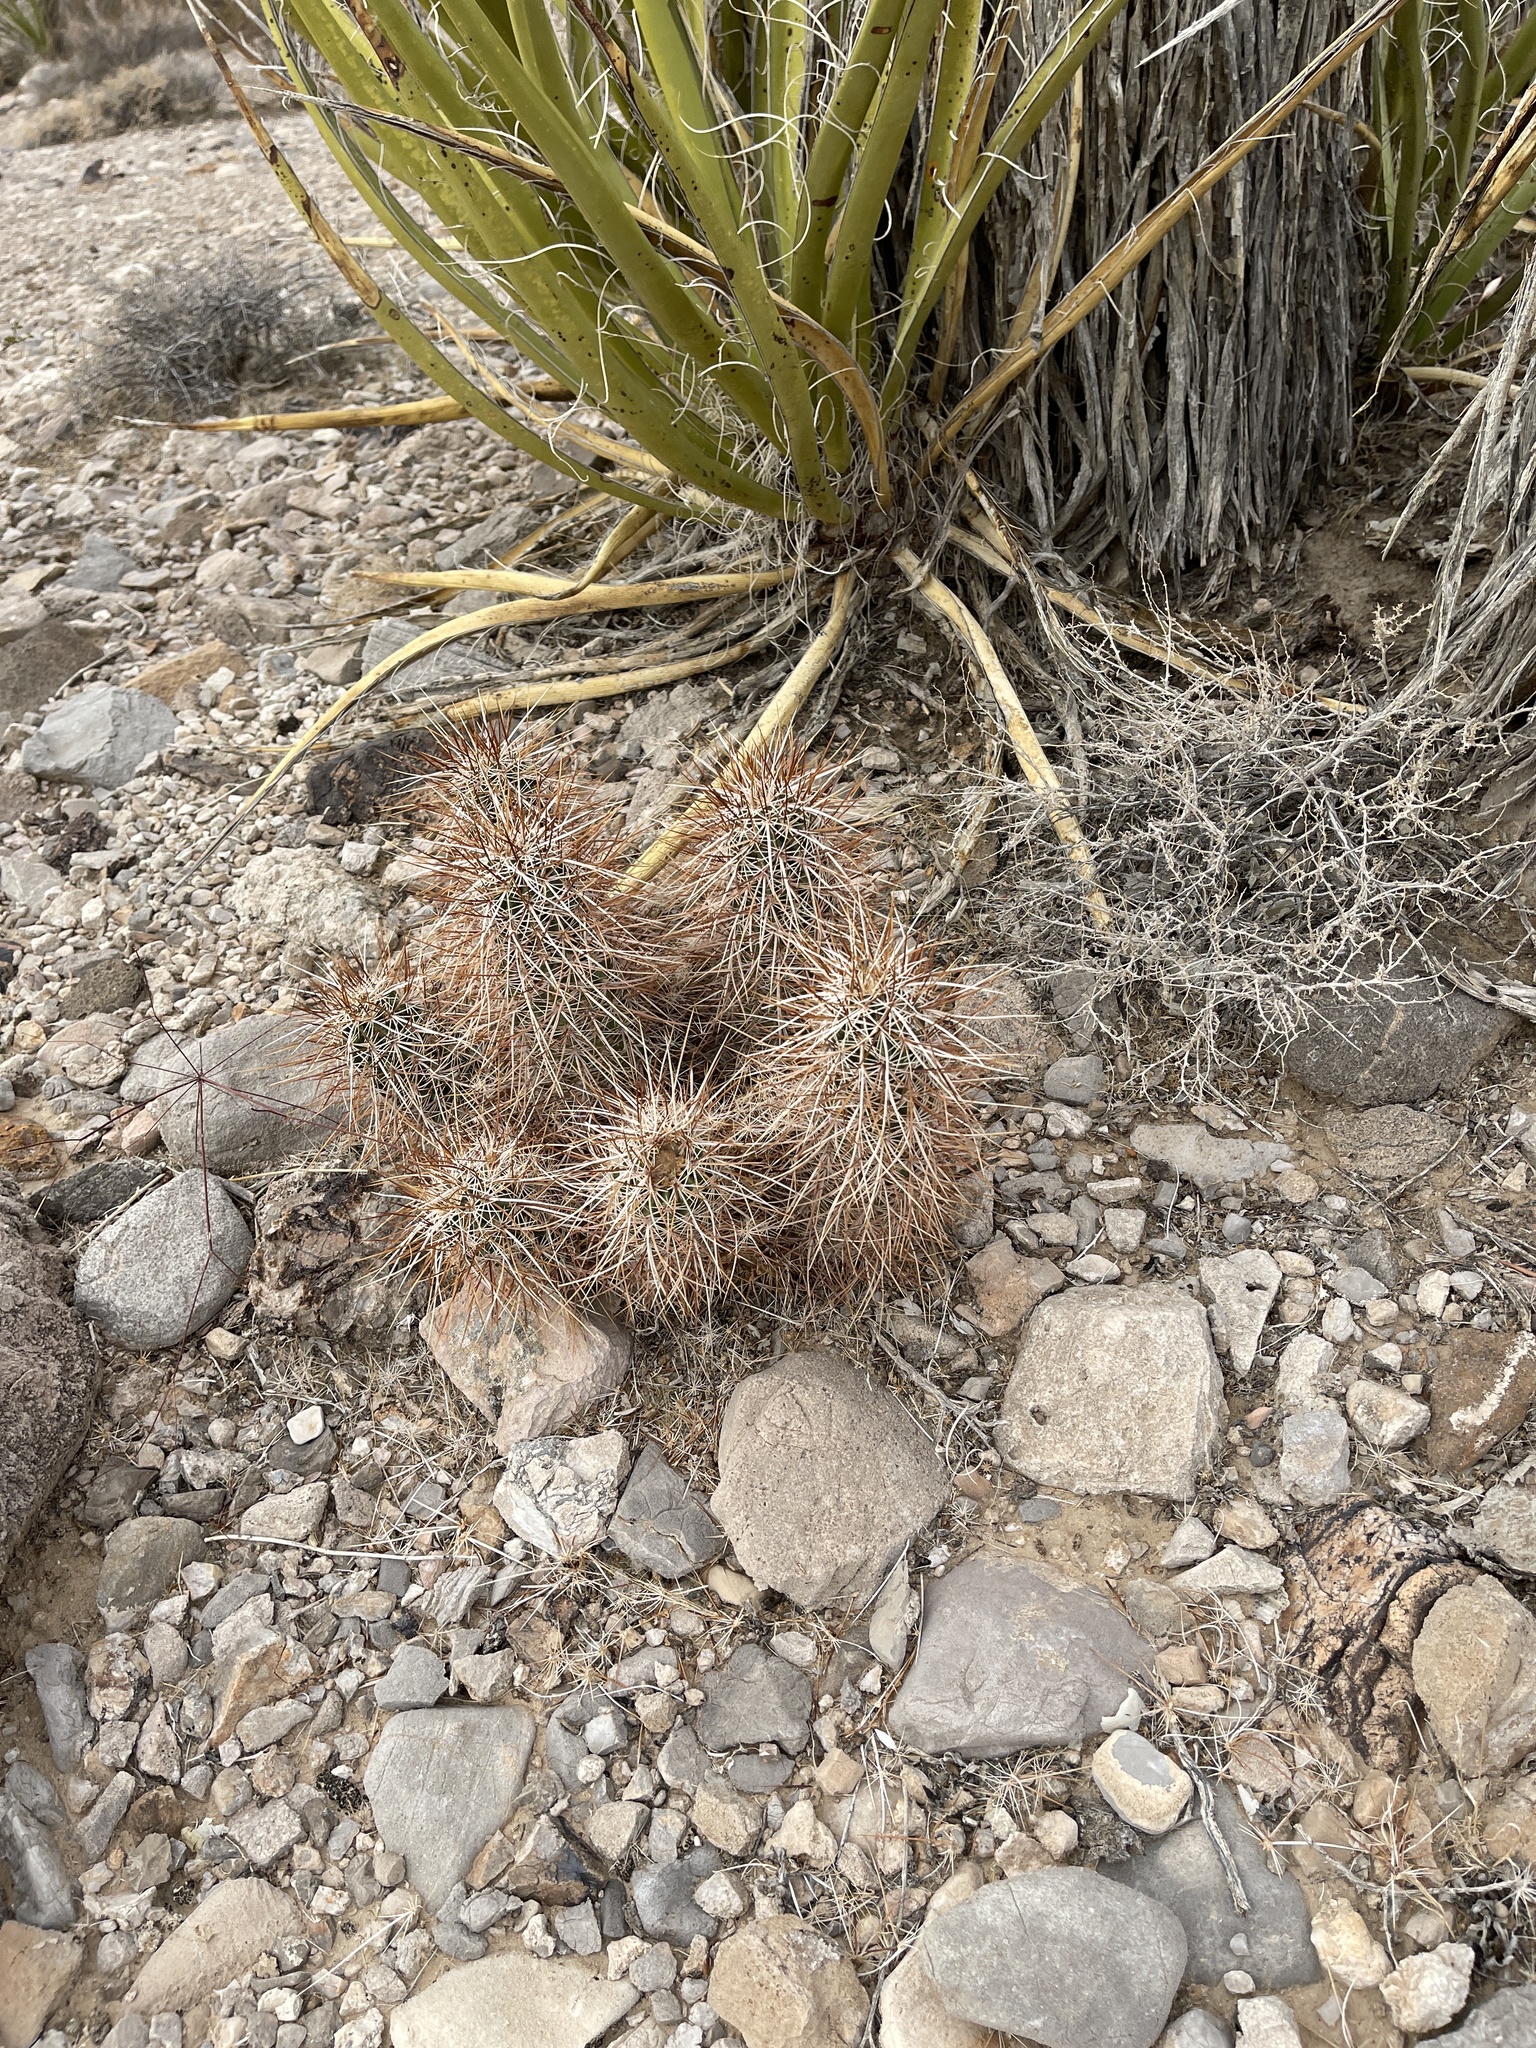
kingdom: Plantae
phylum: Tracheophyta
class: Magnoliopsida
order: Caryophyllales
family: Cactaceae
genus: Echinocereus
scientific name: Echinocereus engelmannii
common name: Engelmann's hedgehog cactus
